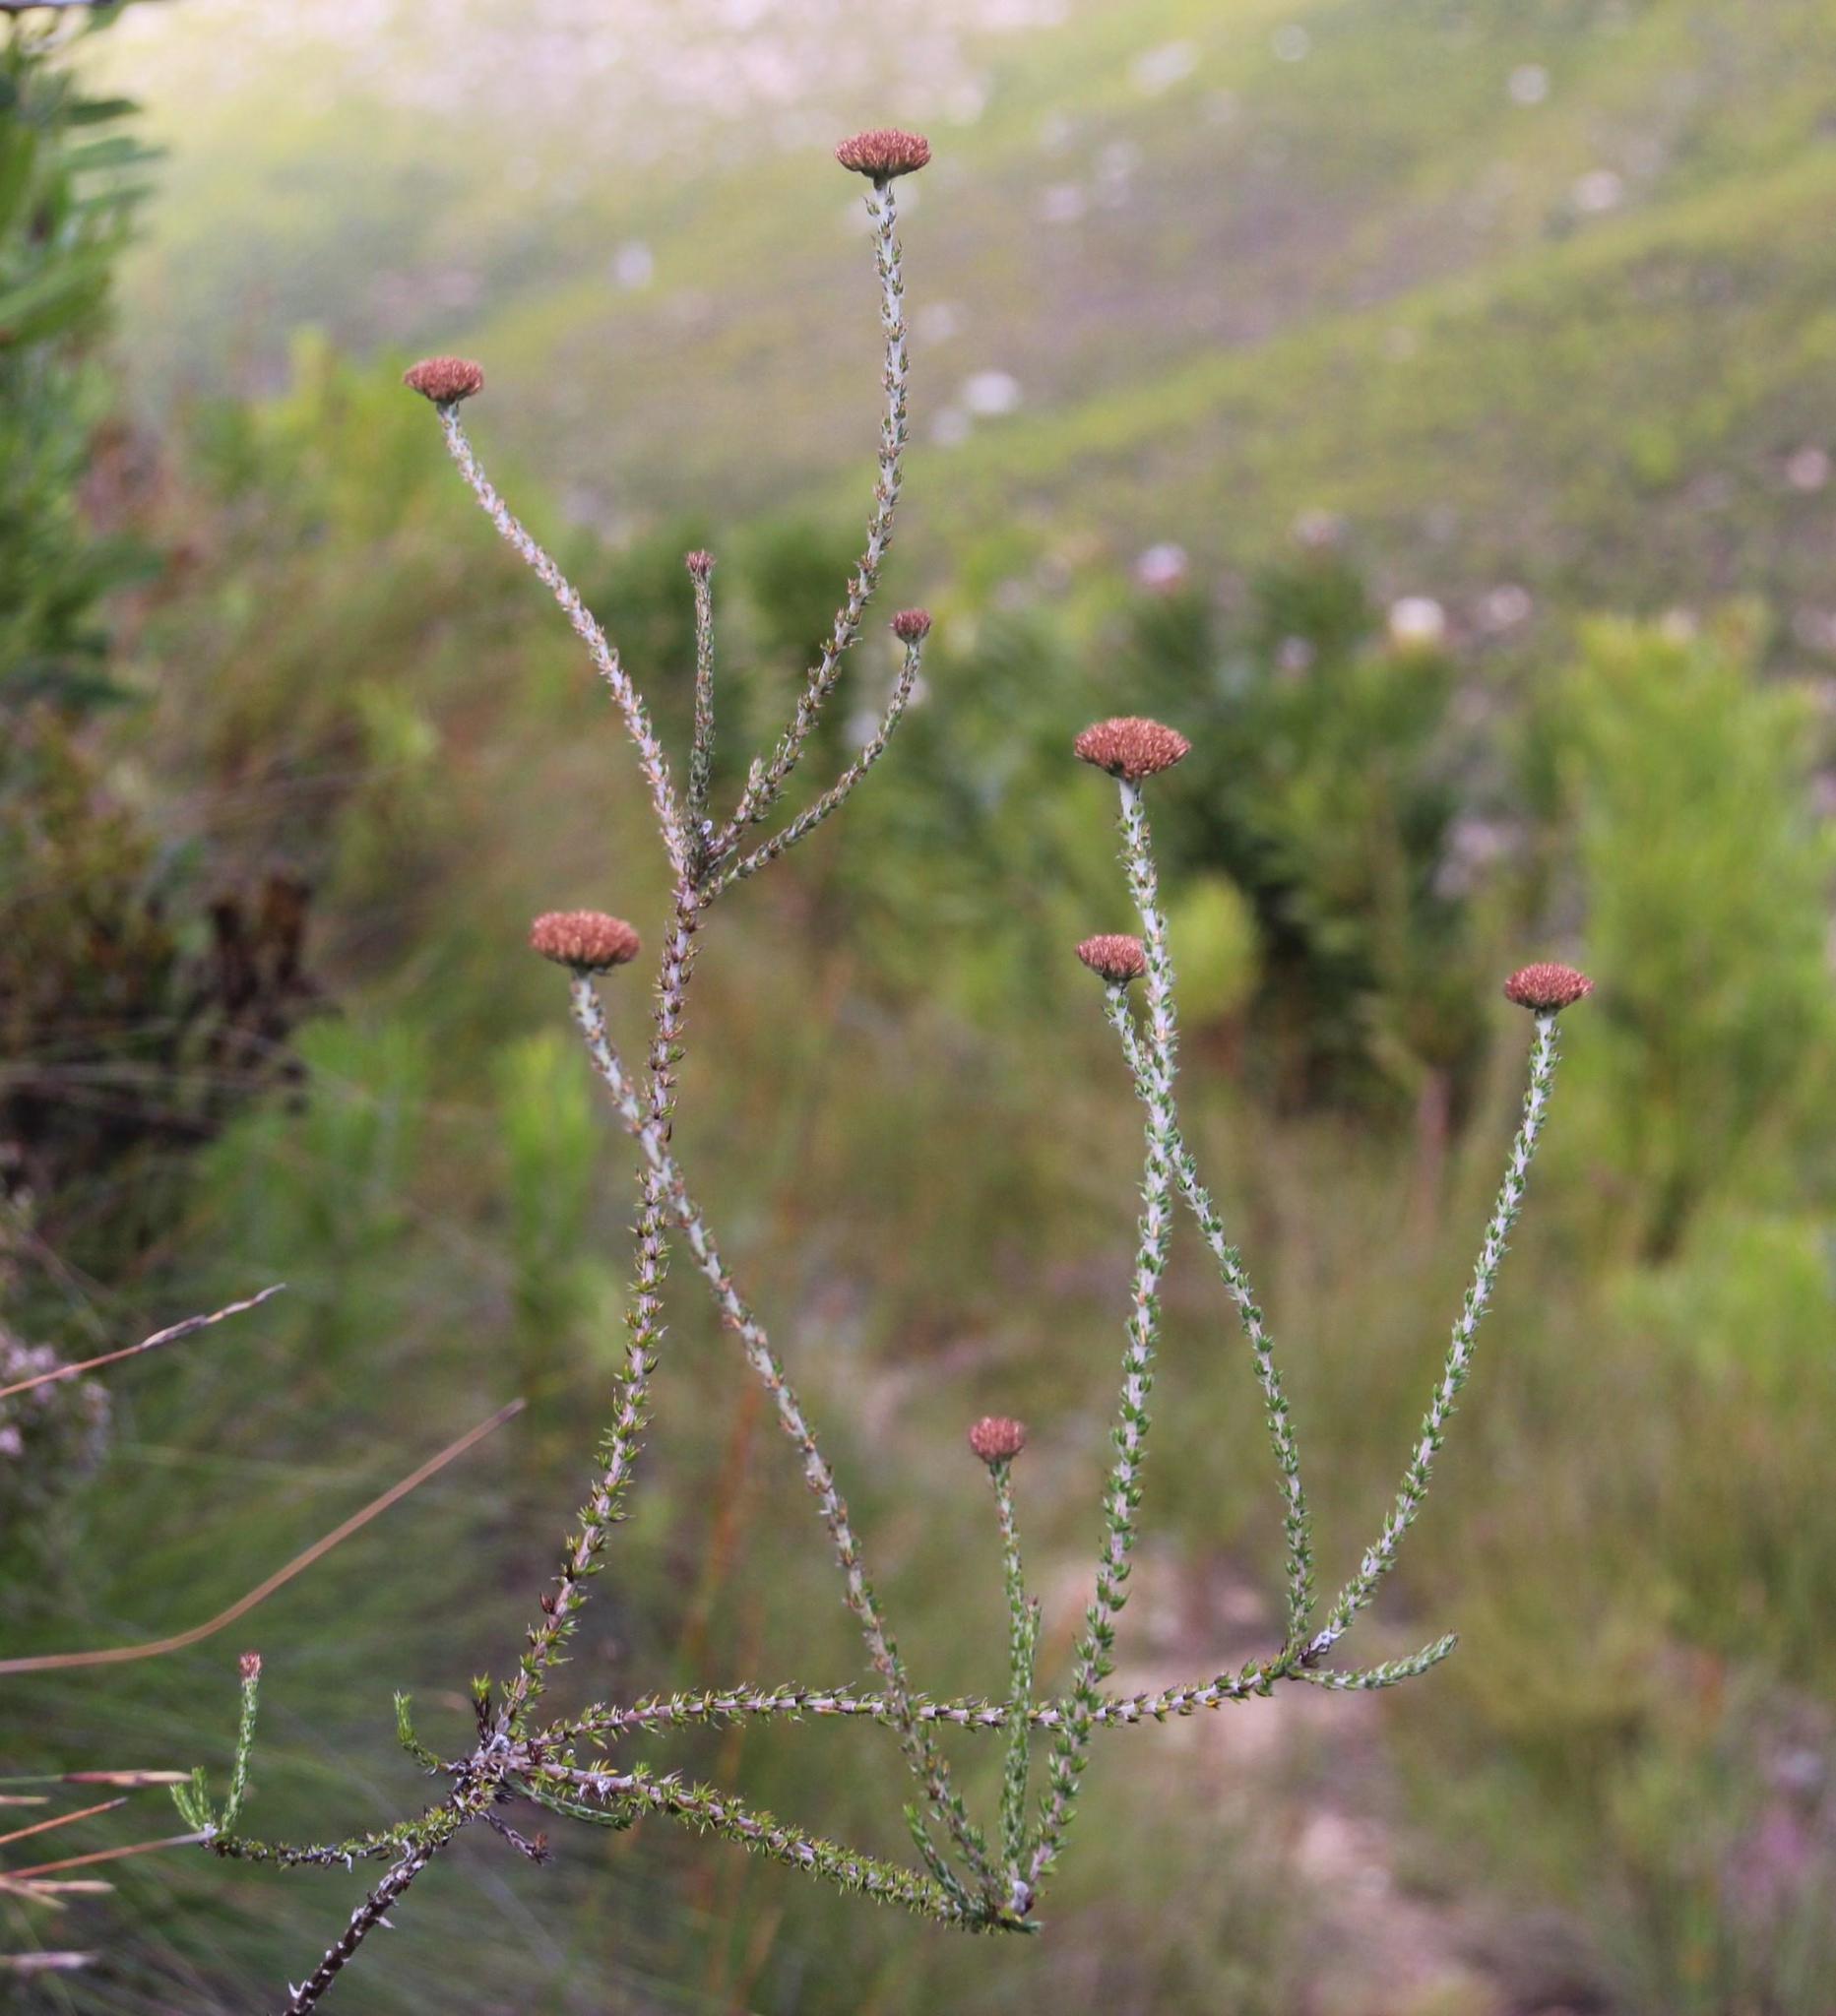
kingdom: Plantae
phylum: Tracheophyta
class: Magnoliopsida
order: Asterales
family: Asteraceae
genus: Metalasia
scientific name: Metalasia pungens
